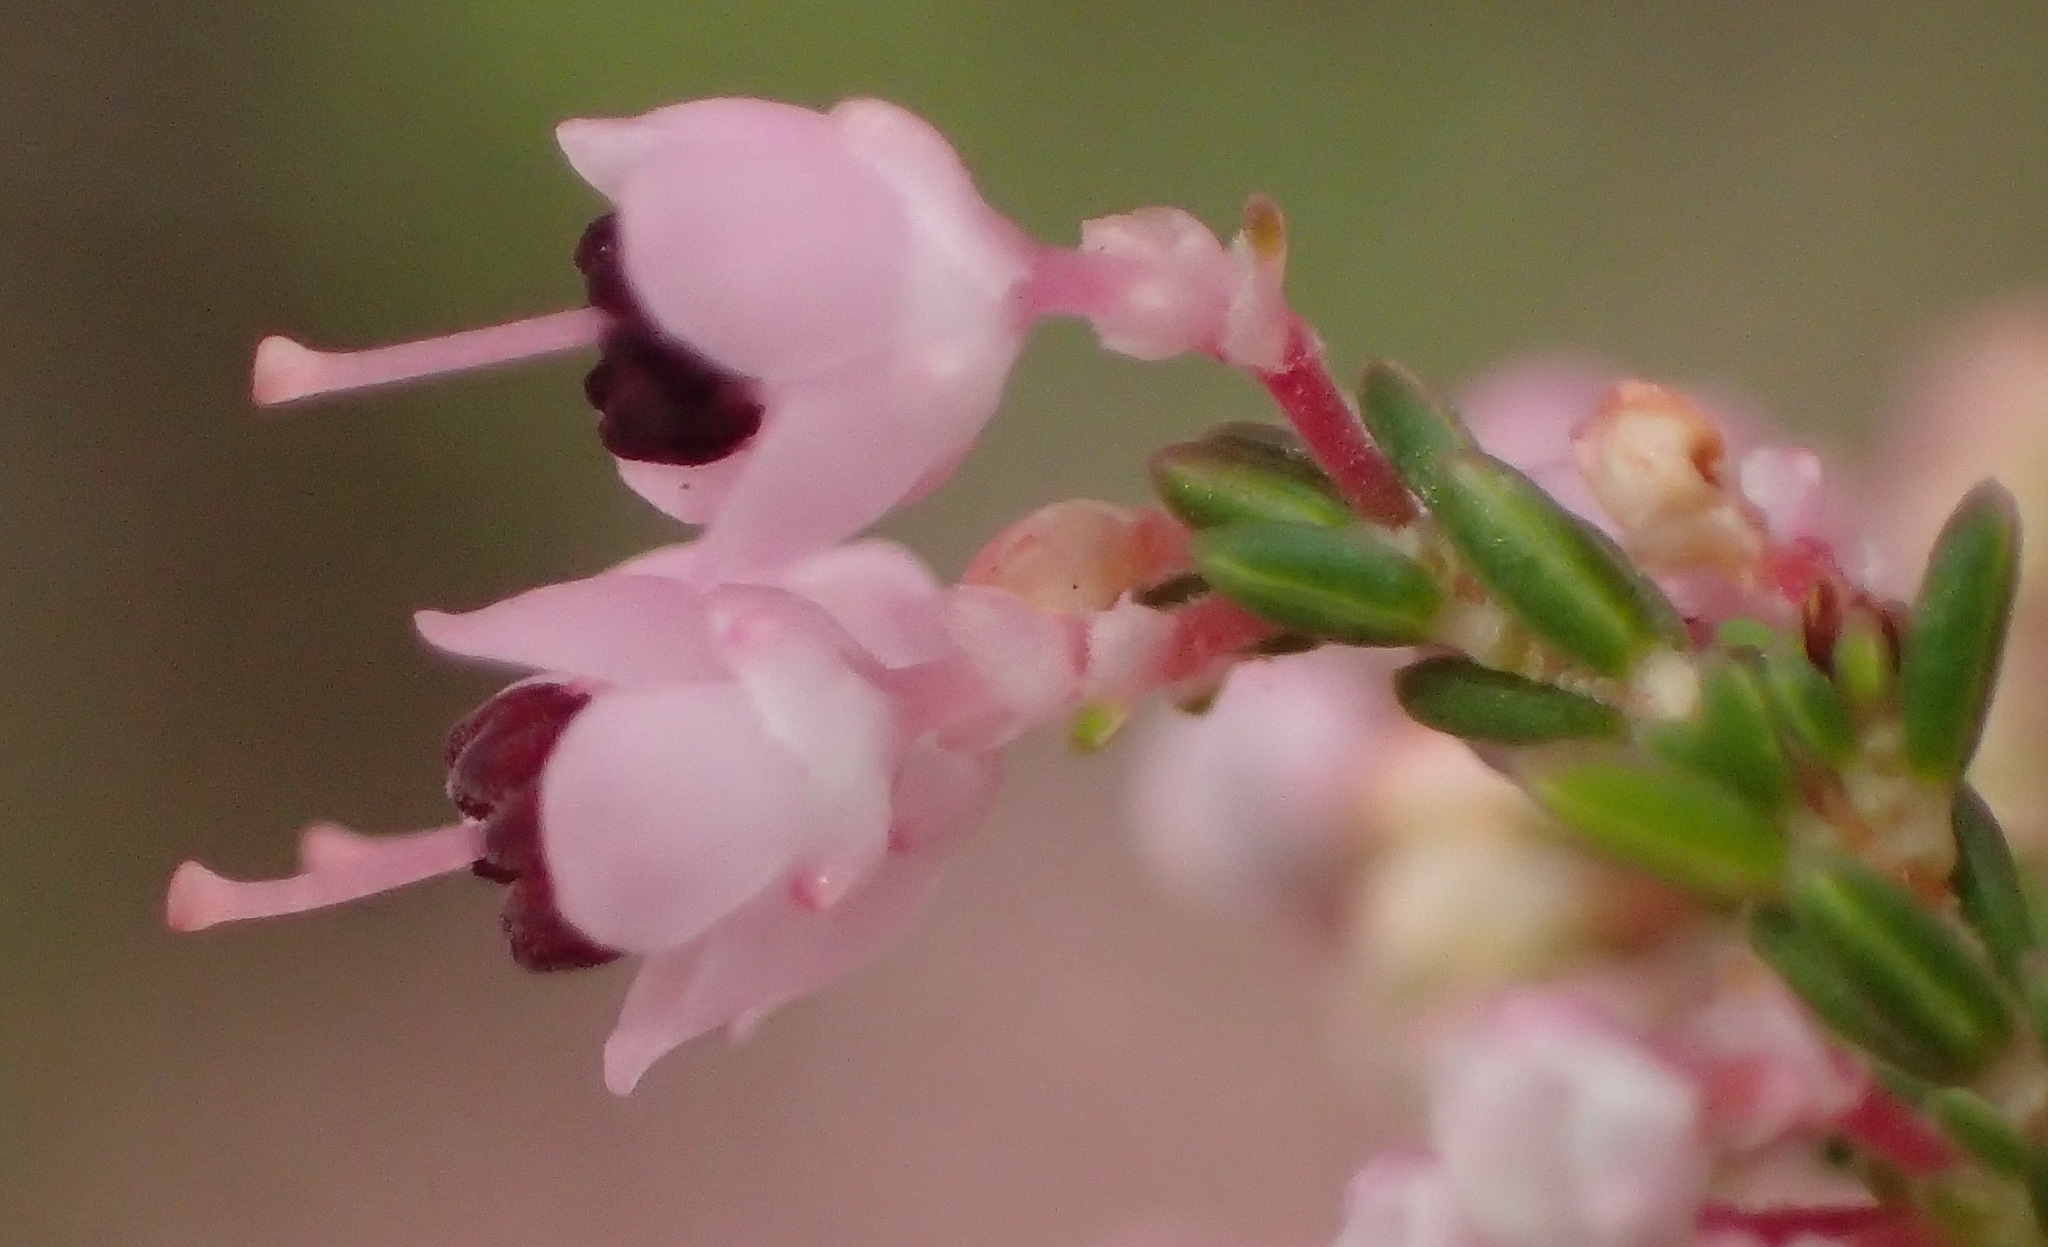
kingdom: Plantae
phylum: Tracheophyta
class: Magnoliopsida
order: Ericales
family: Ericaceae
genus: Erica
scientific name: Erica sparsa
